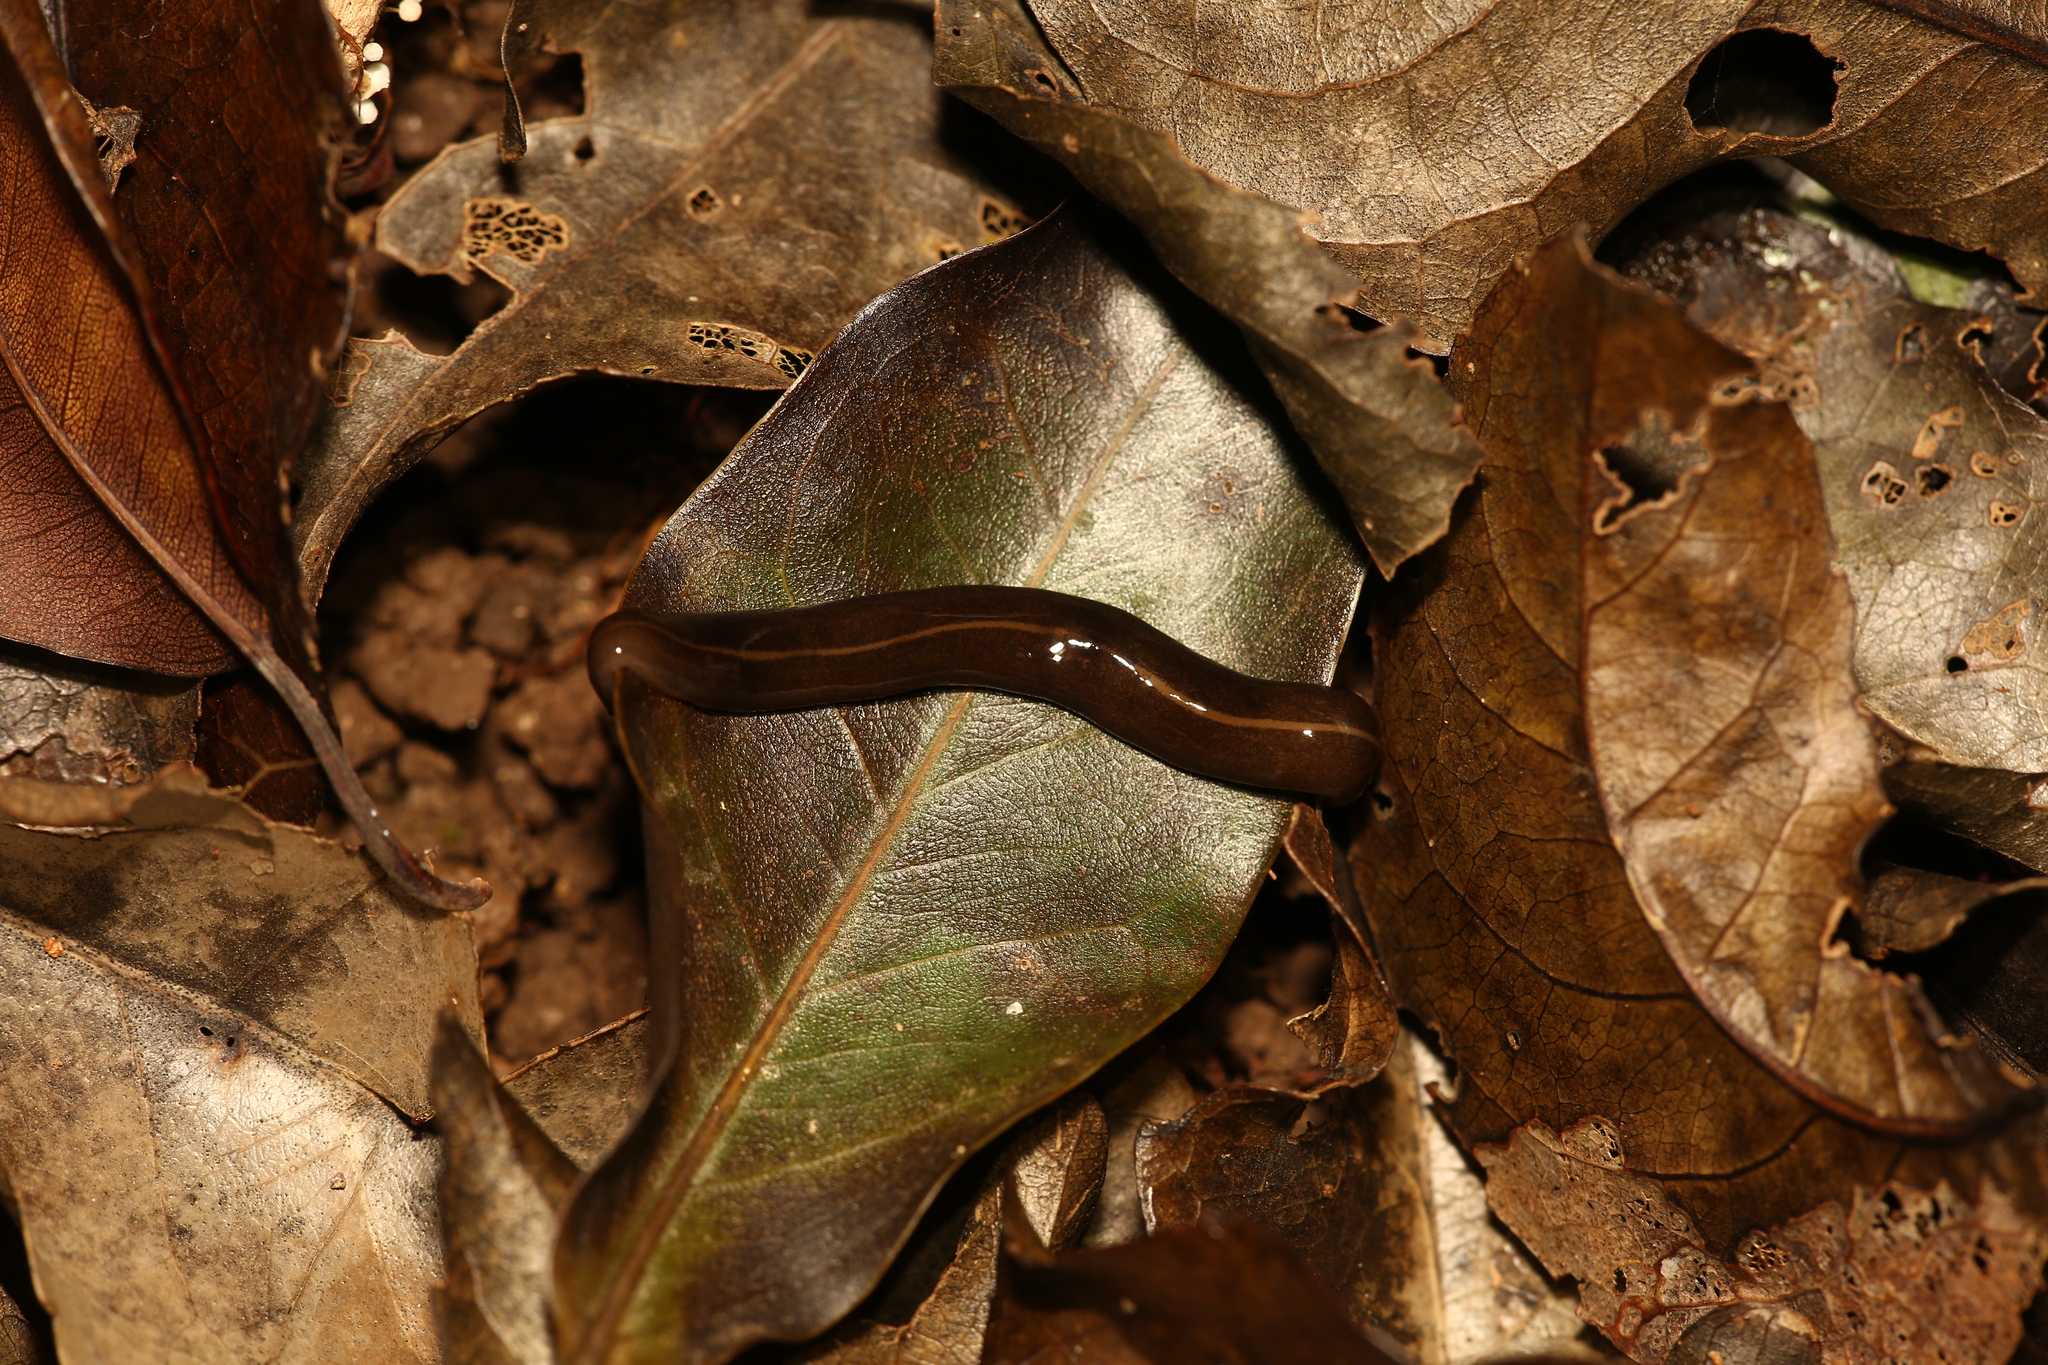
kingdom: Animalia
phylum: Platyhelminthes
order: Tricladida
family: Geoplanidae
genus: Platydemus
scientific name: Platydemus manokwari
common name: New guinea flatworm
